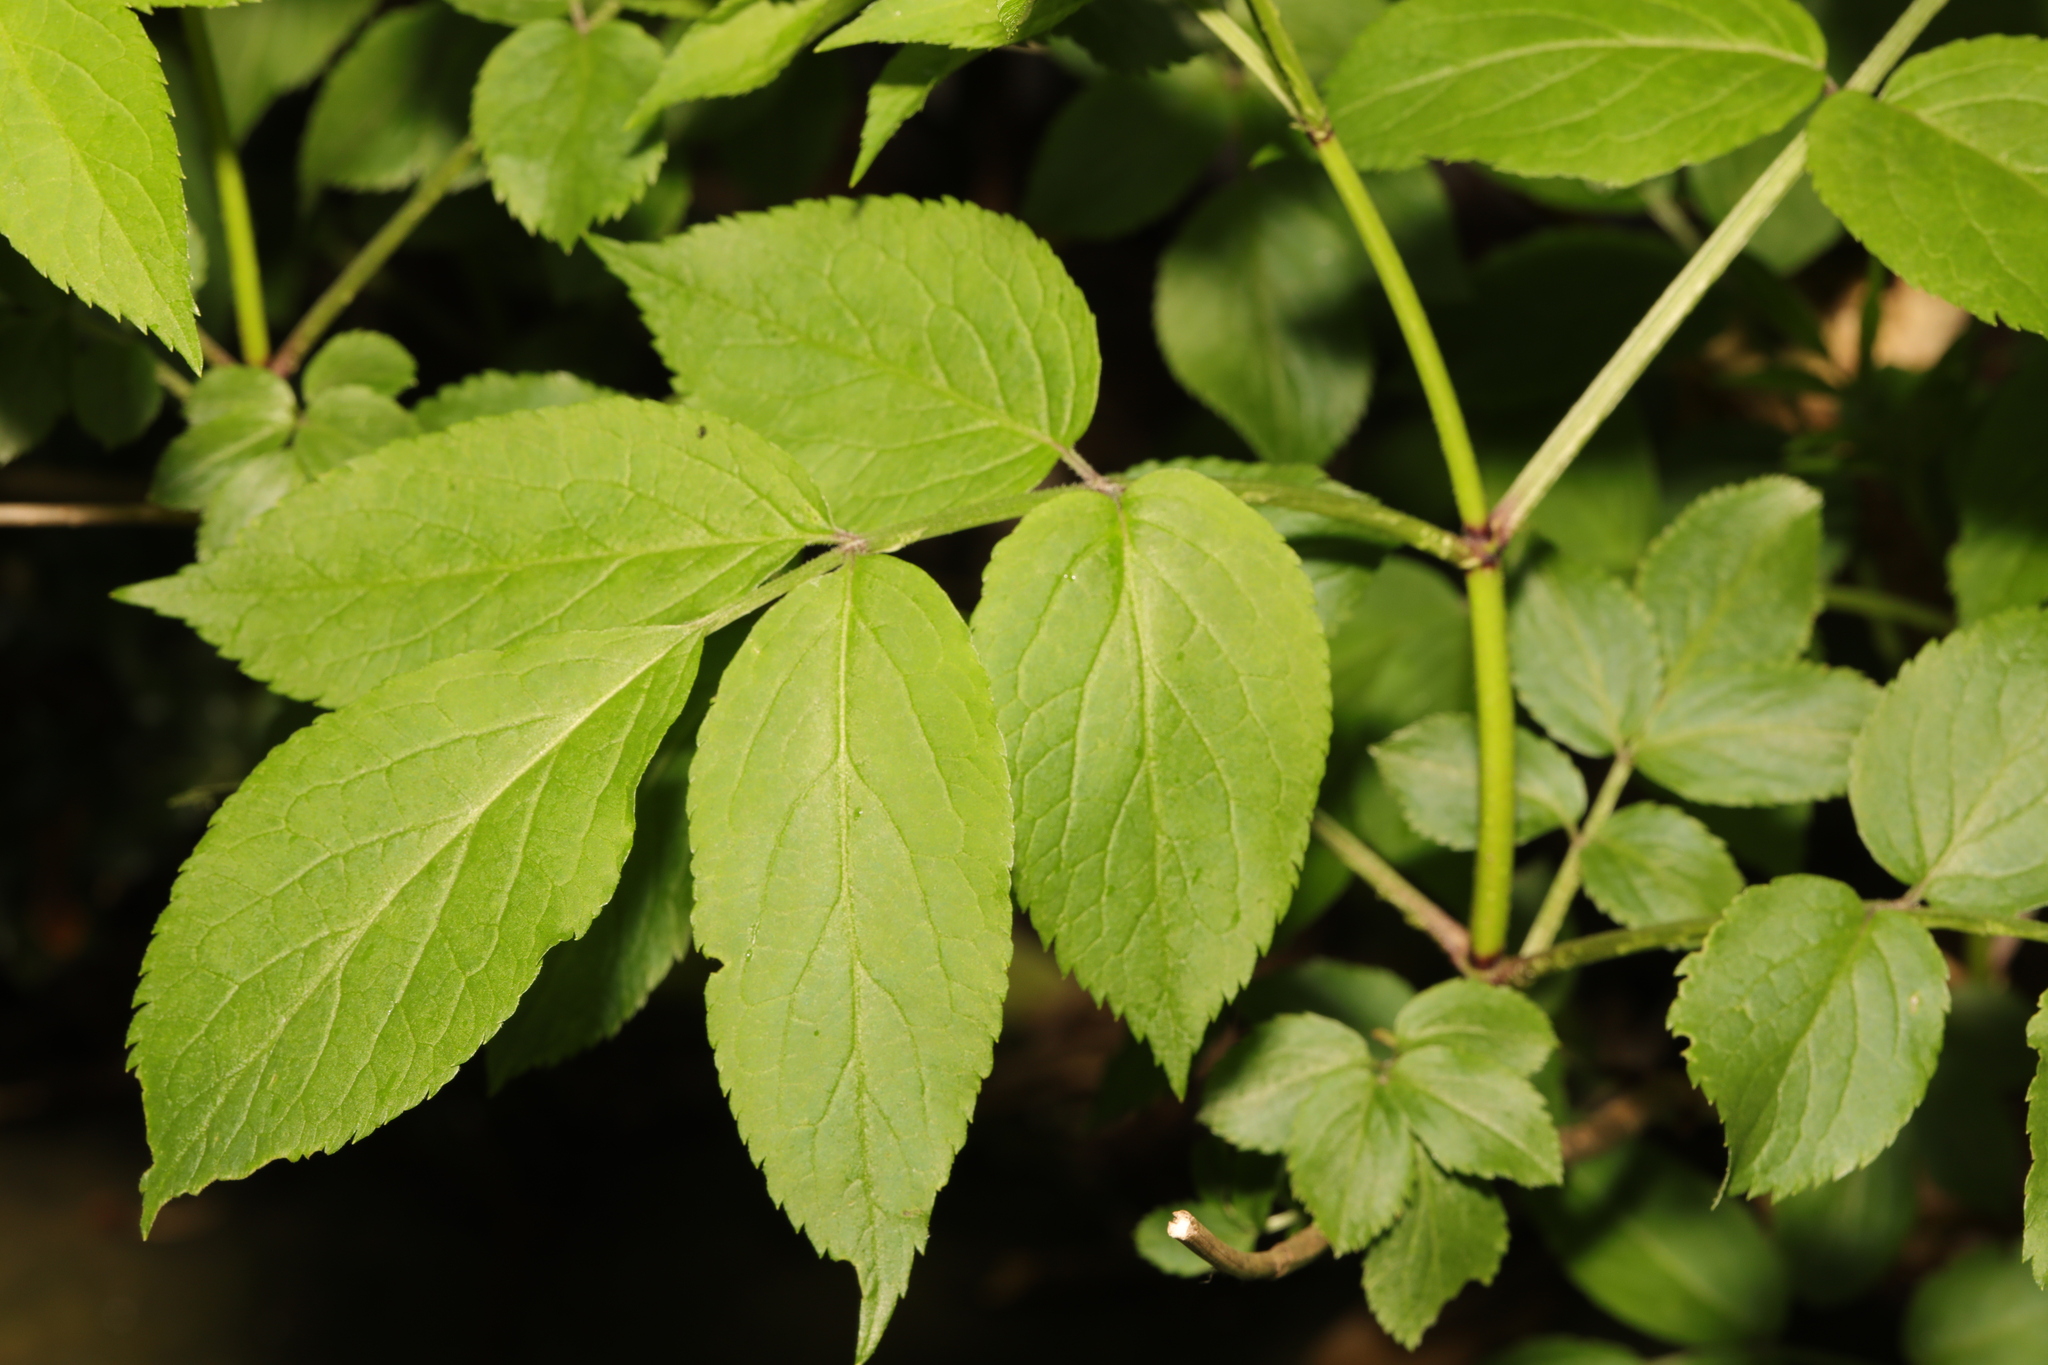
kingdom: Plantae
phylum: Tracheophyta
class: Magnoliopsida
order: Dipsacales
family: Viburnaceae
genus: Sambucus
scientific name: Sambucus nigra
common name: Elder
